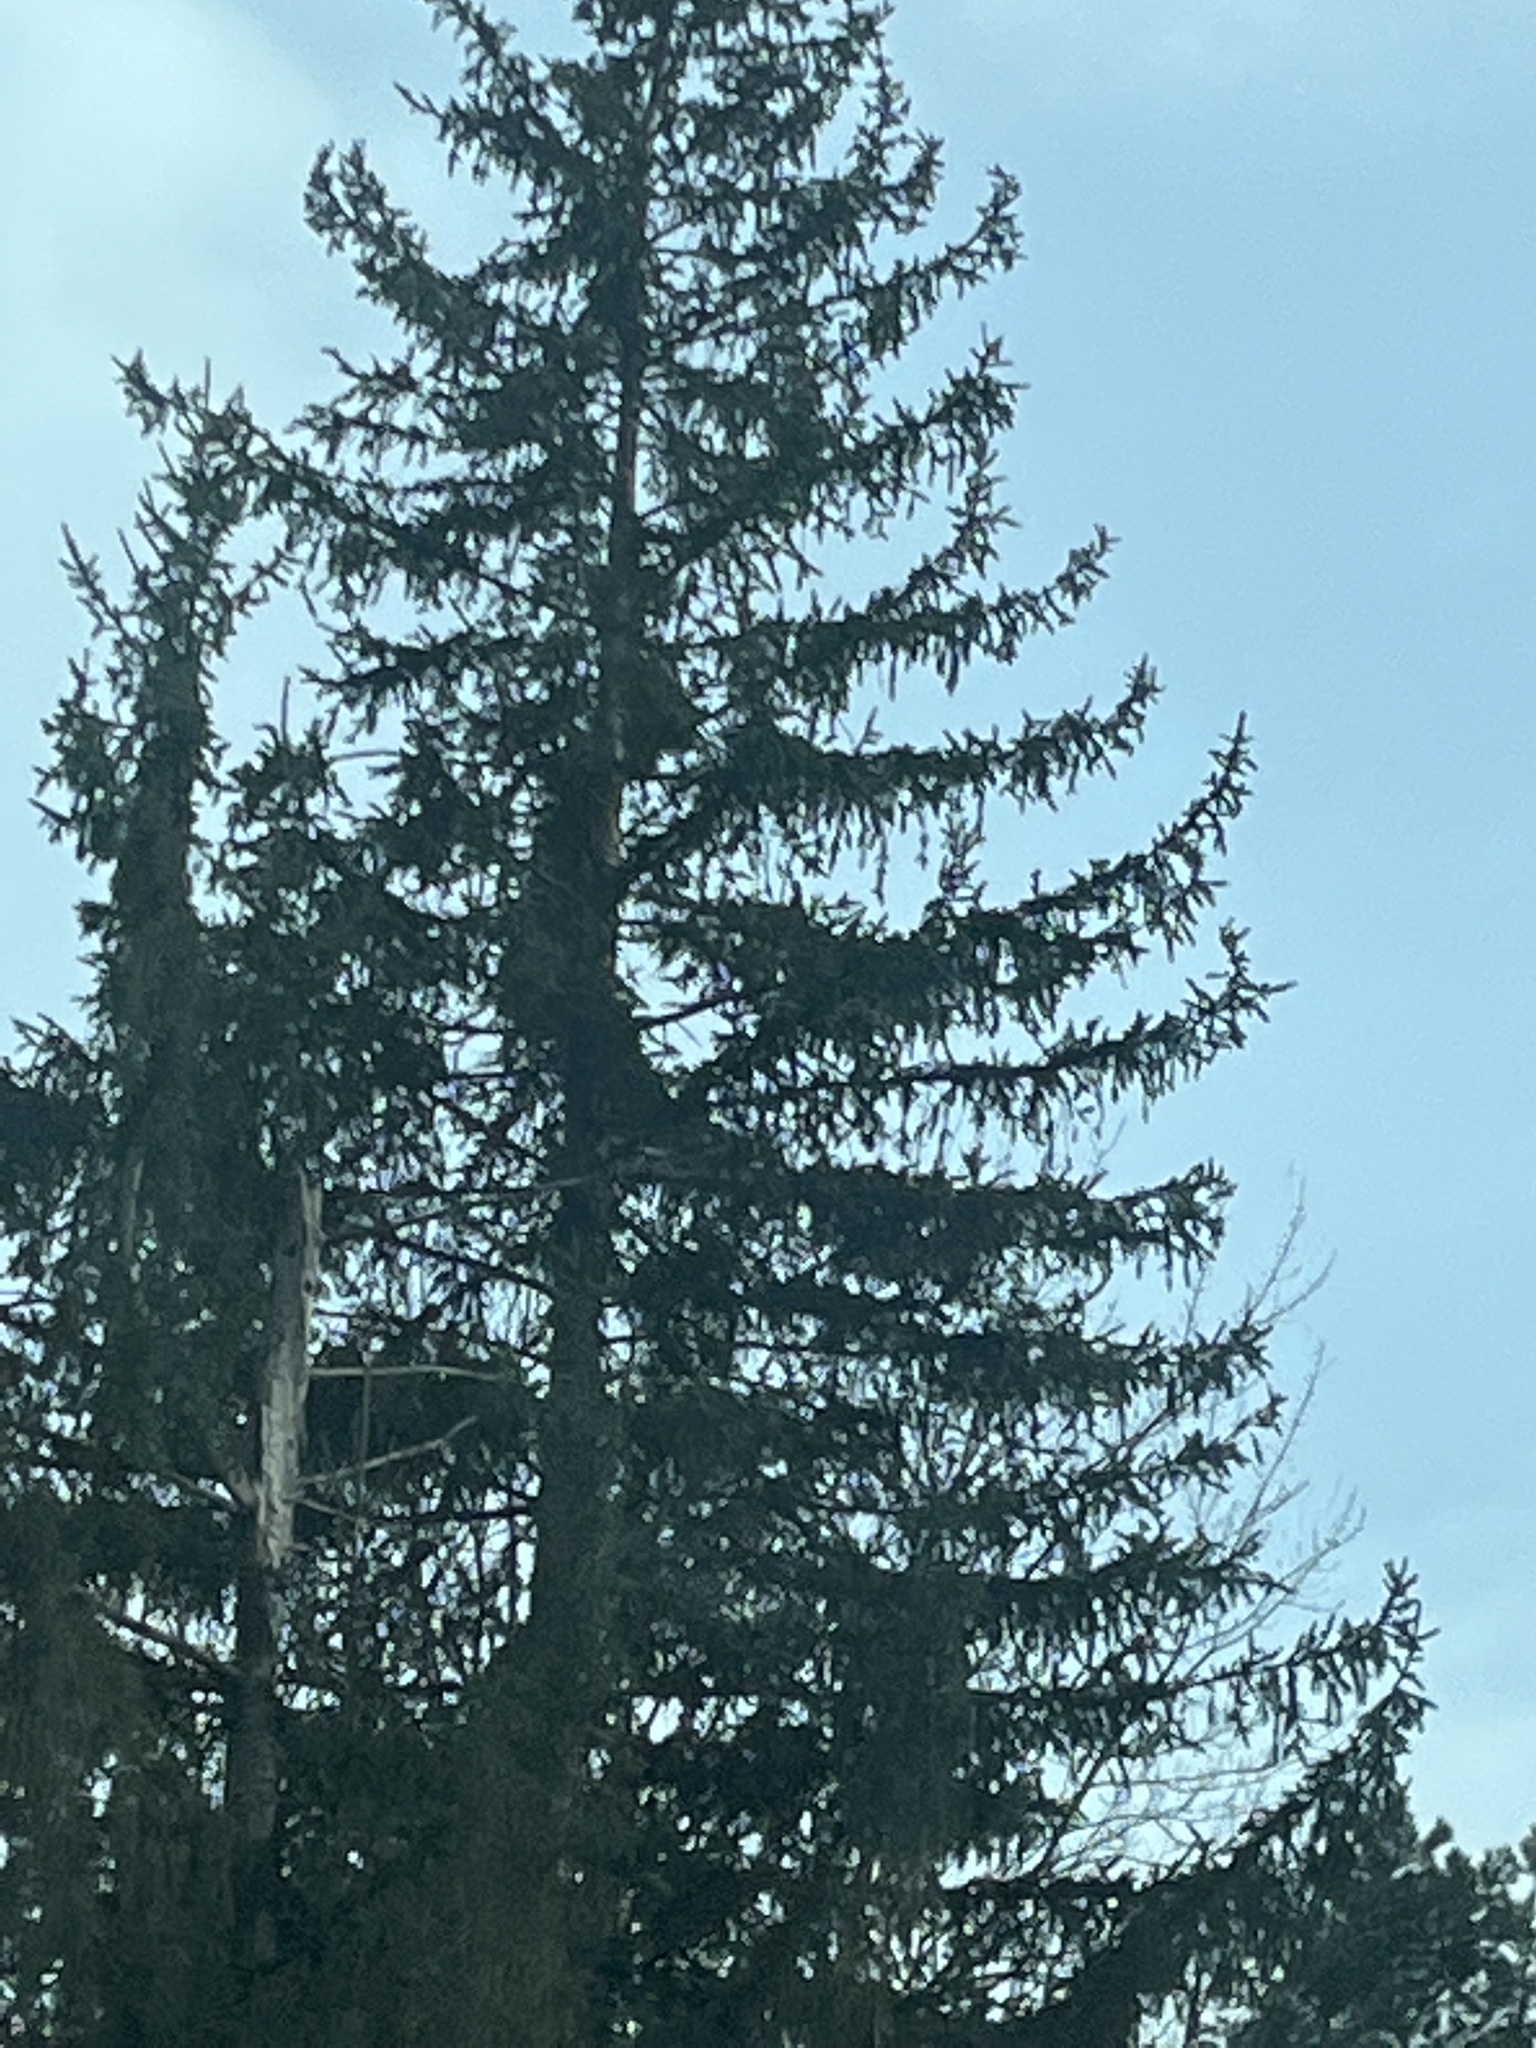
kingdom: Plantae
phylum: Tracheophyta
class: Pinopsida
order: Pinales
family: Pinaceae
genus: Picea
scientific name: Picea abies
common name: Norway spruce
